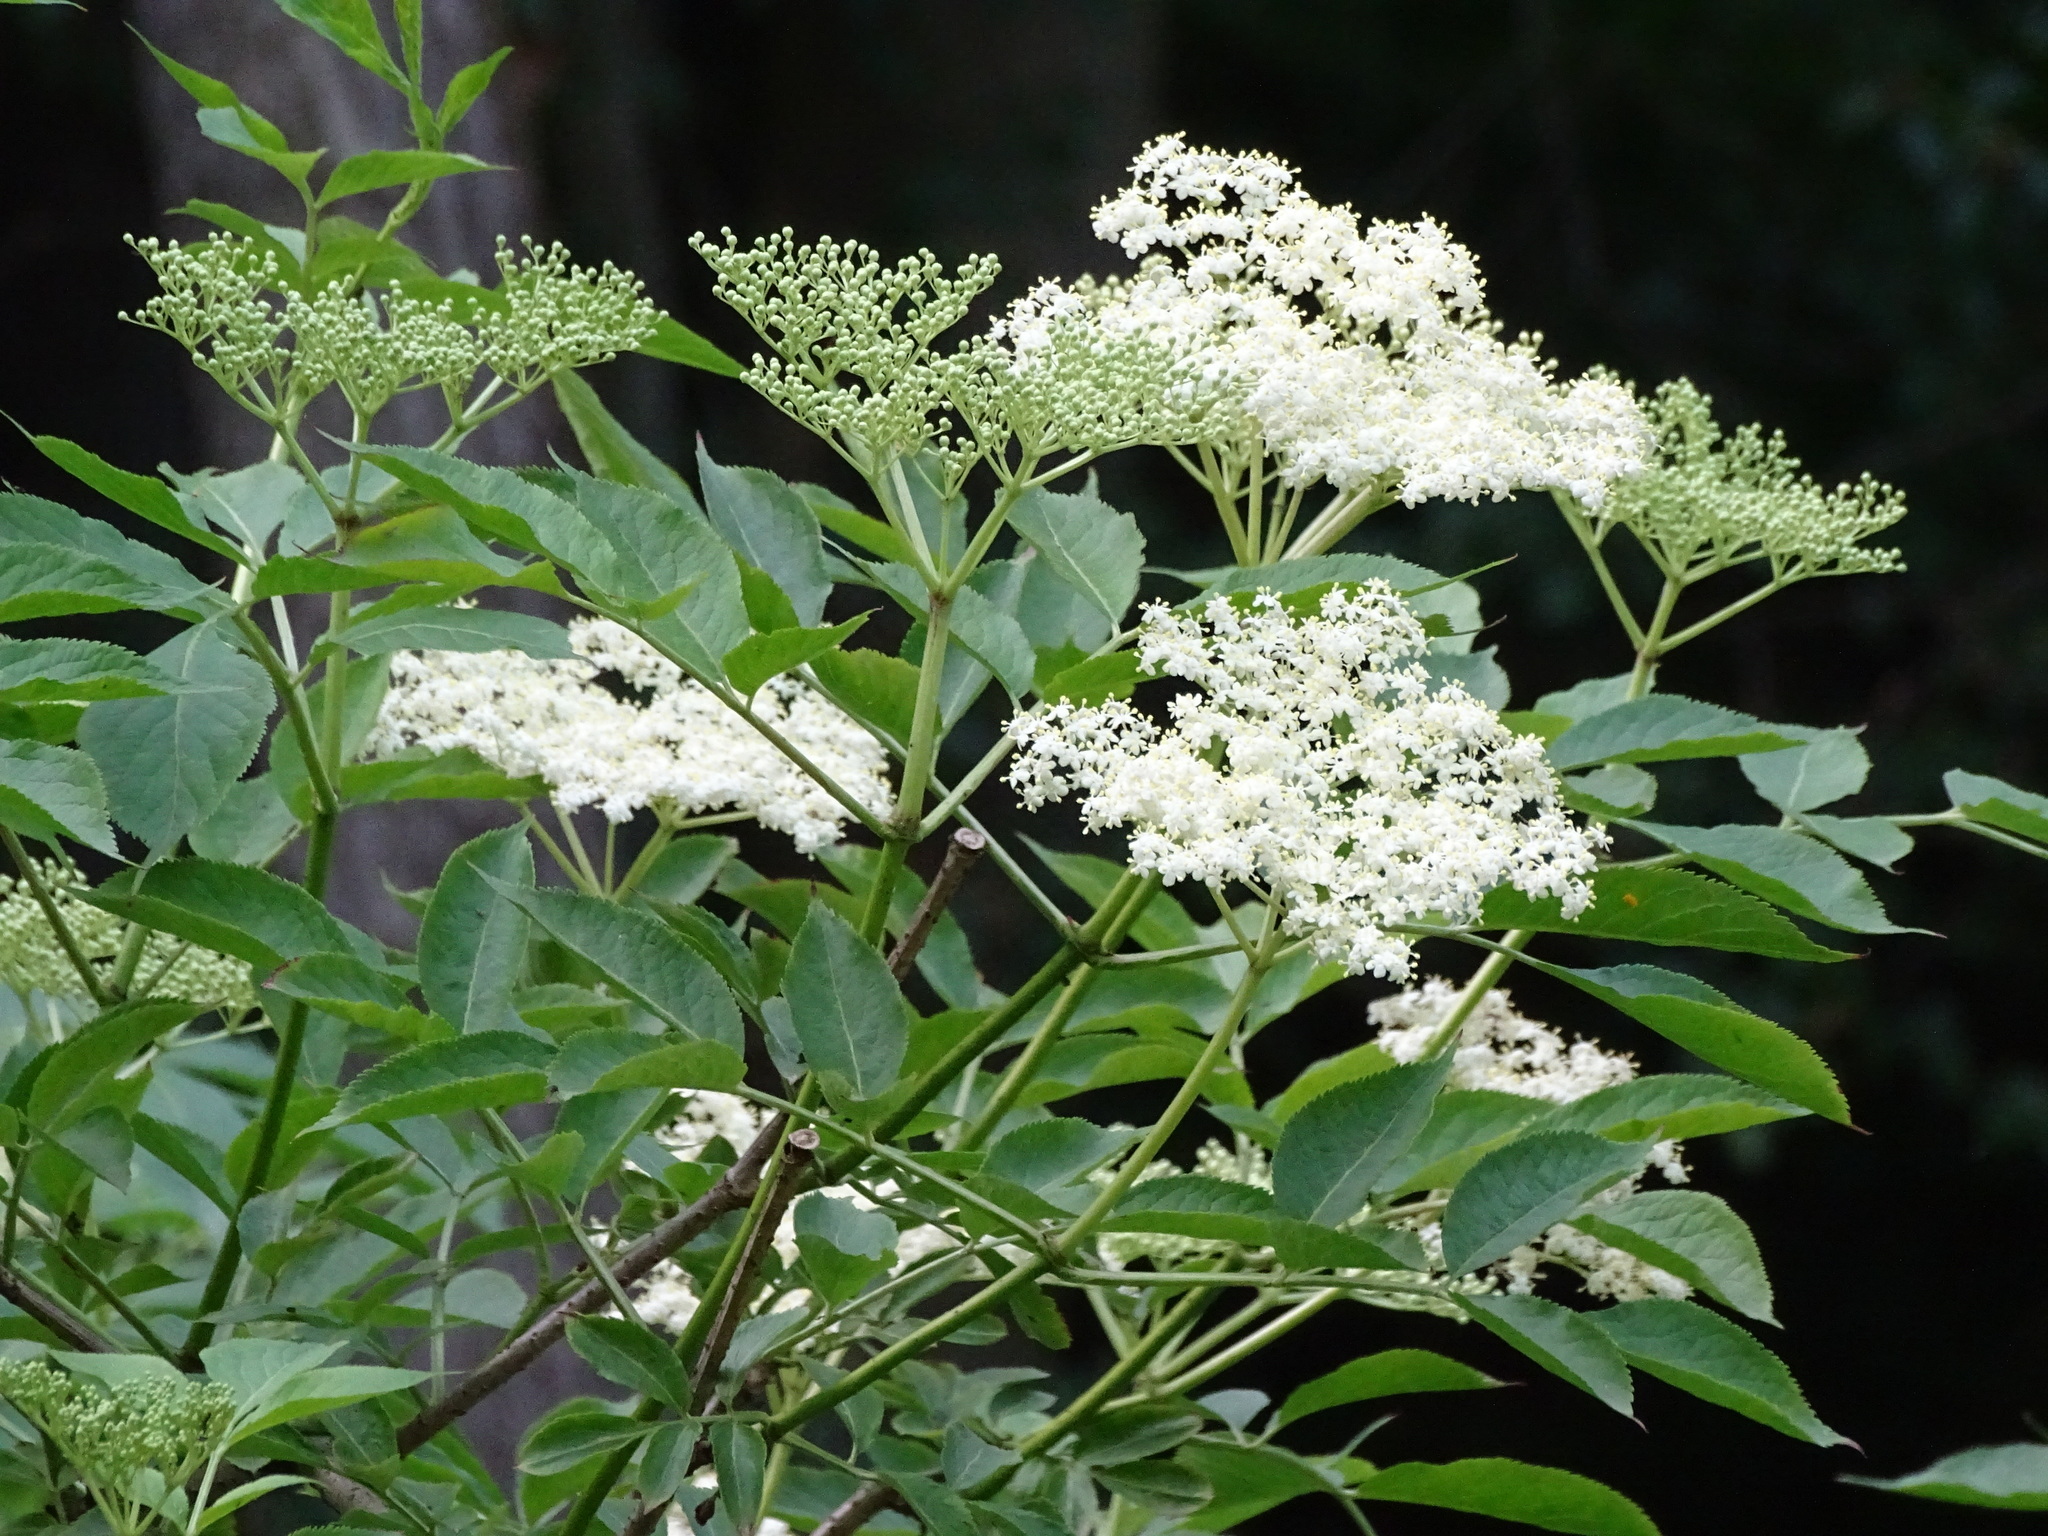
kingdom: Plantae
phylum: Tracheophyta
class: Magnoliopsida
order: Dipsacales
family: Viburnaceae
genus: Sambucus
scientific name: Sambucus nigra
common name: Elder
